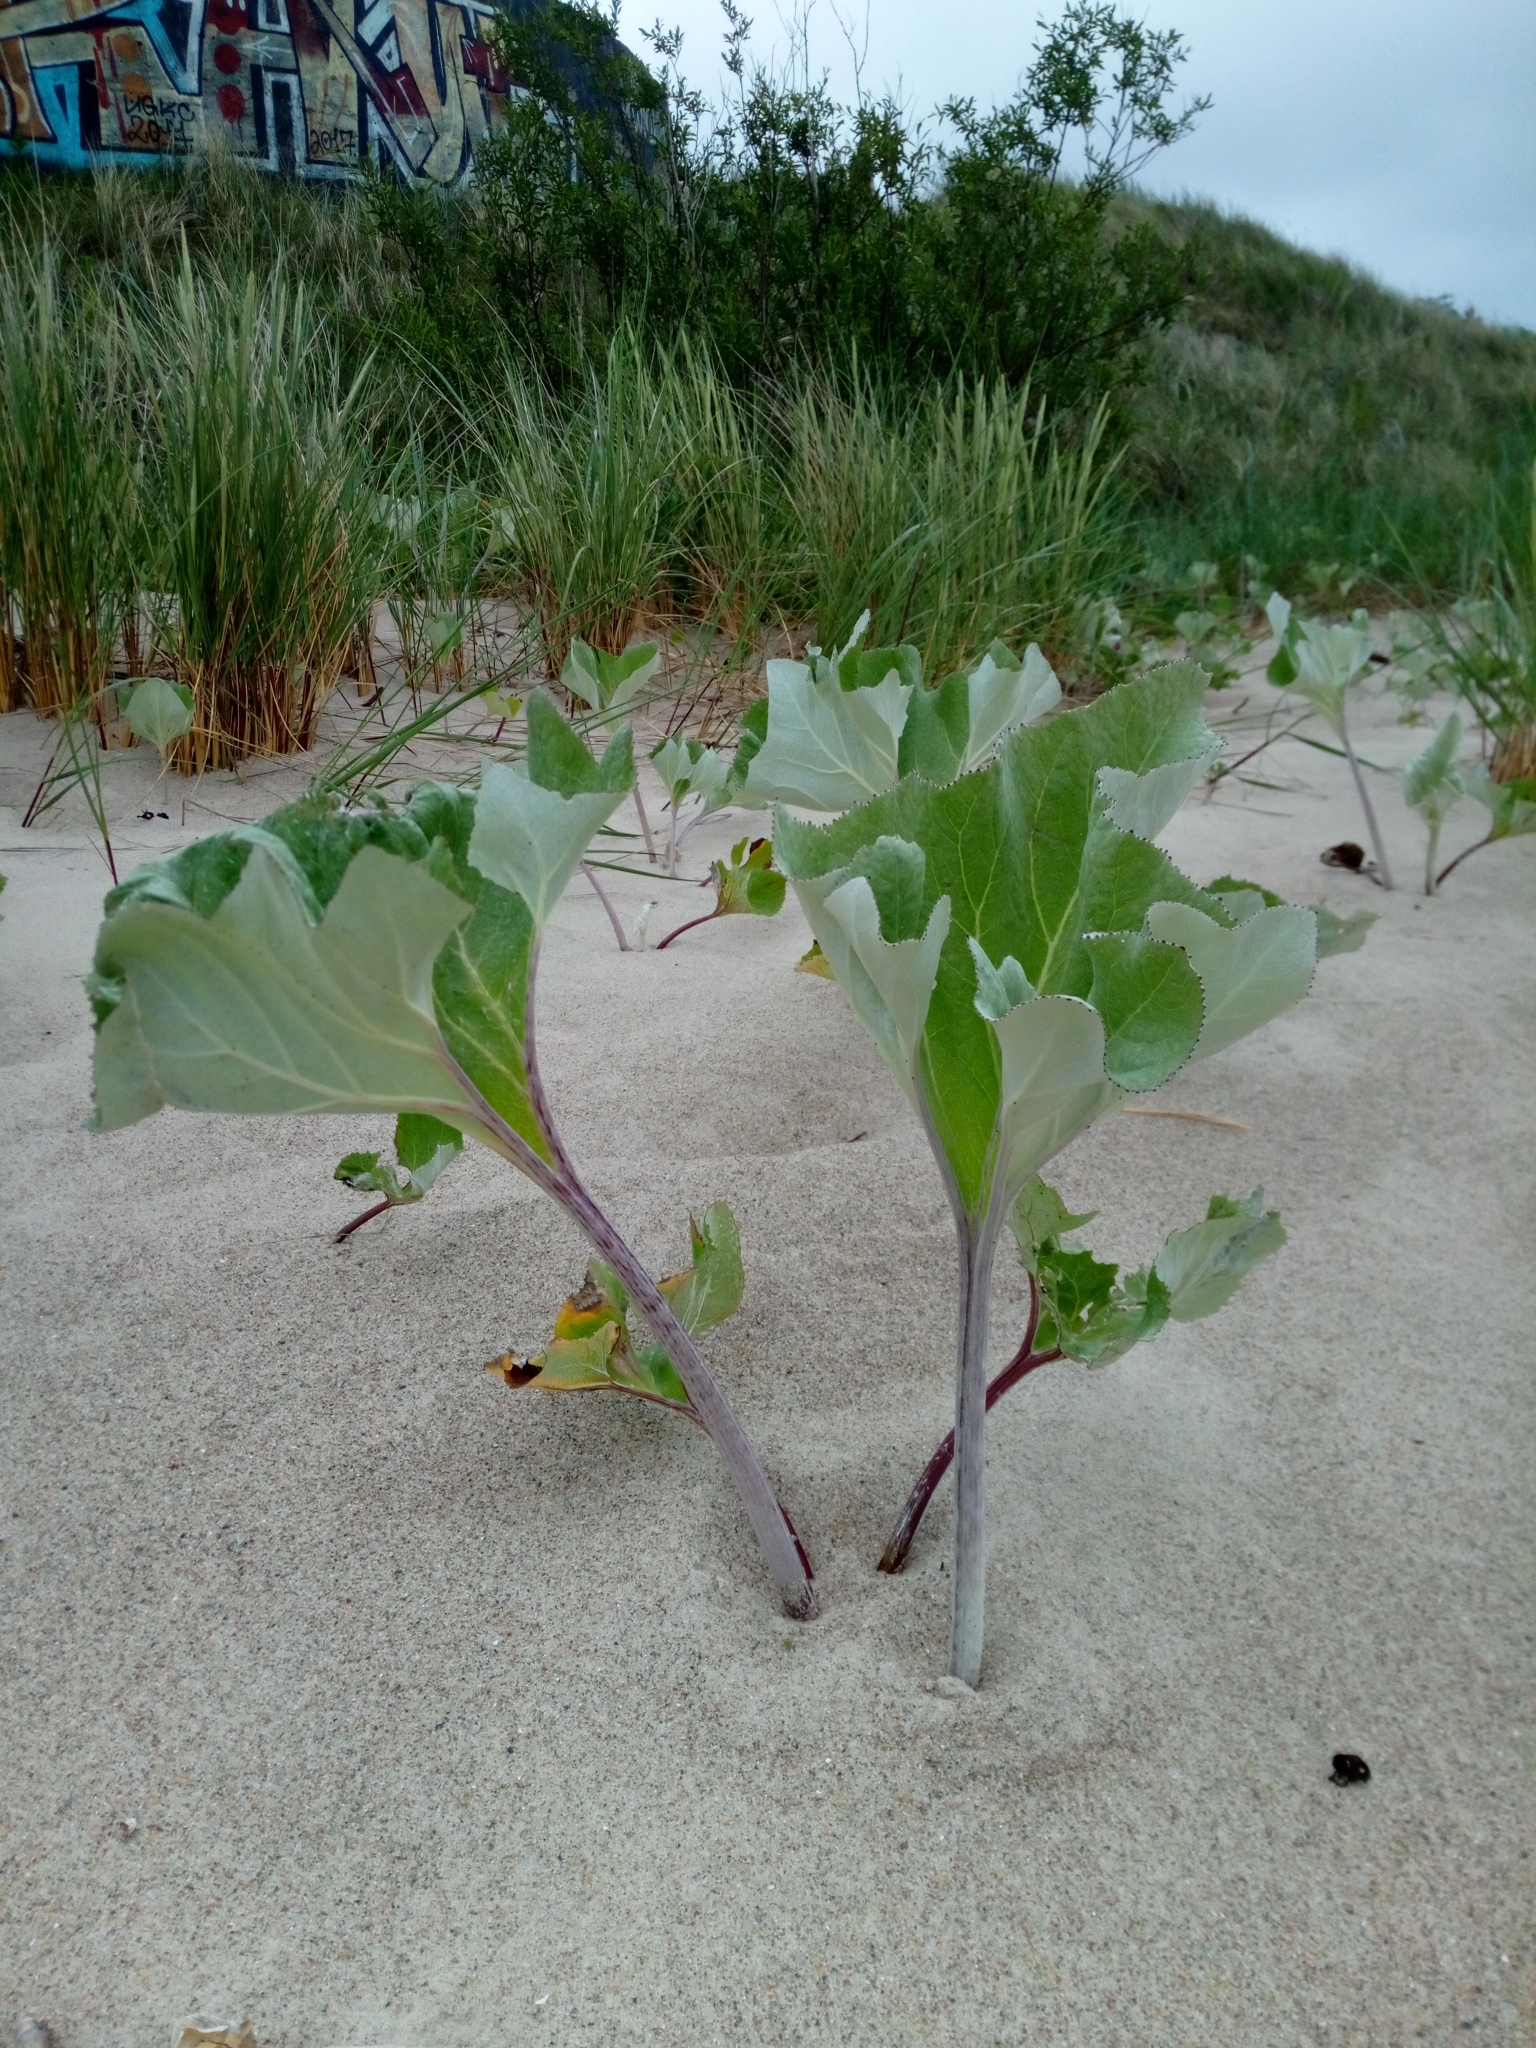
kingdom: Plantae
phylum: Tracheophyta
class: Magnoliopsida
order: Asterales
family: Asteraceae
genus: Petasites
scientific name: Petasites spurius
